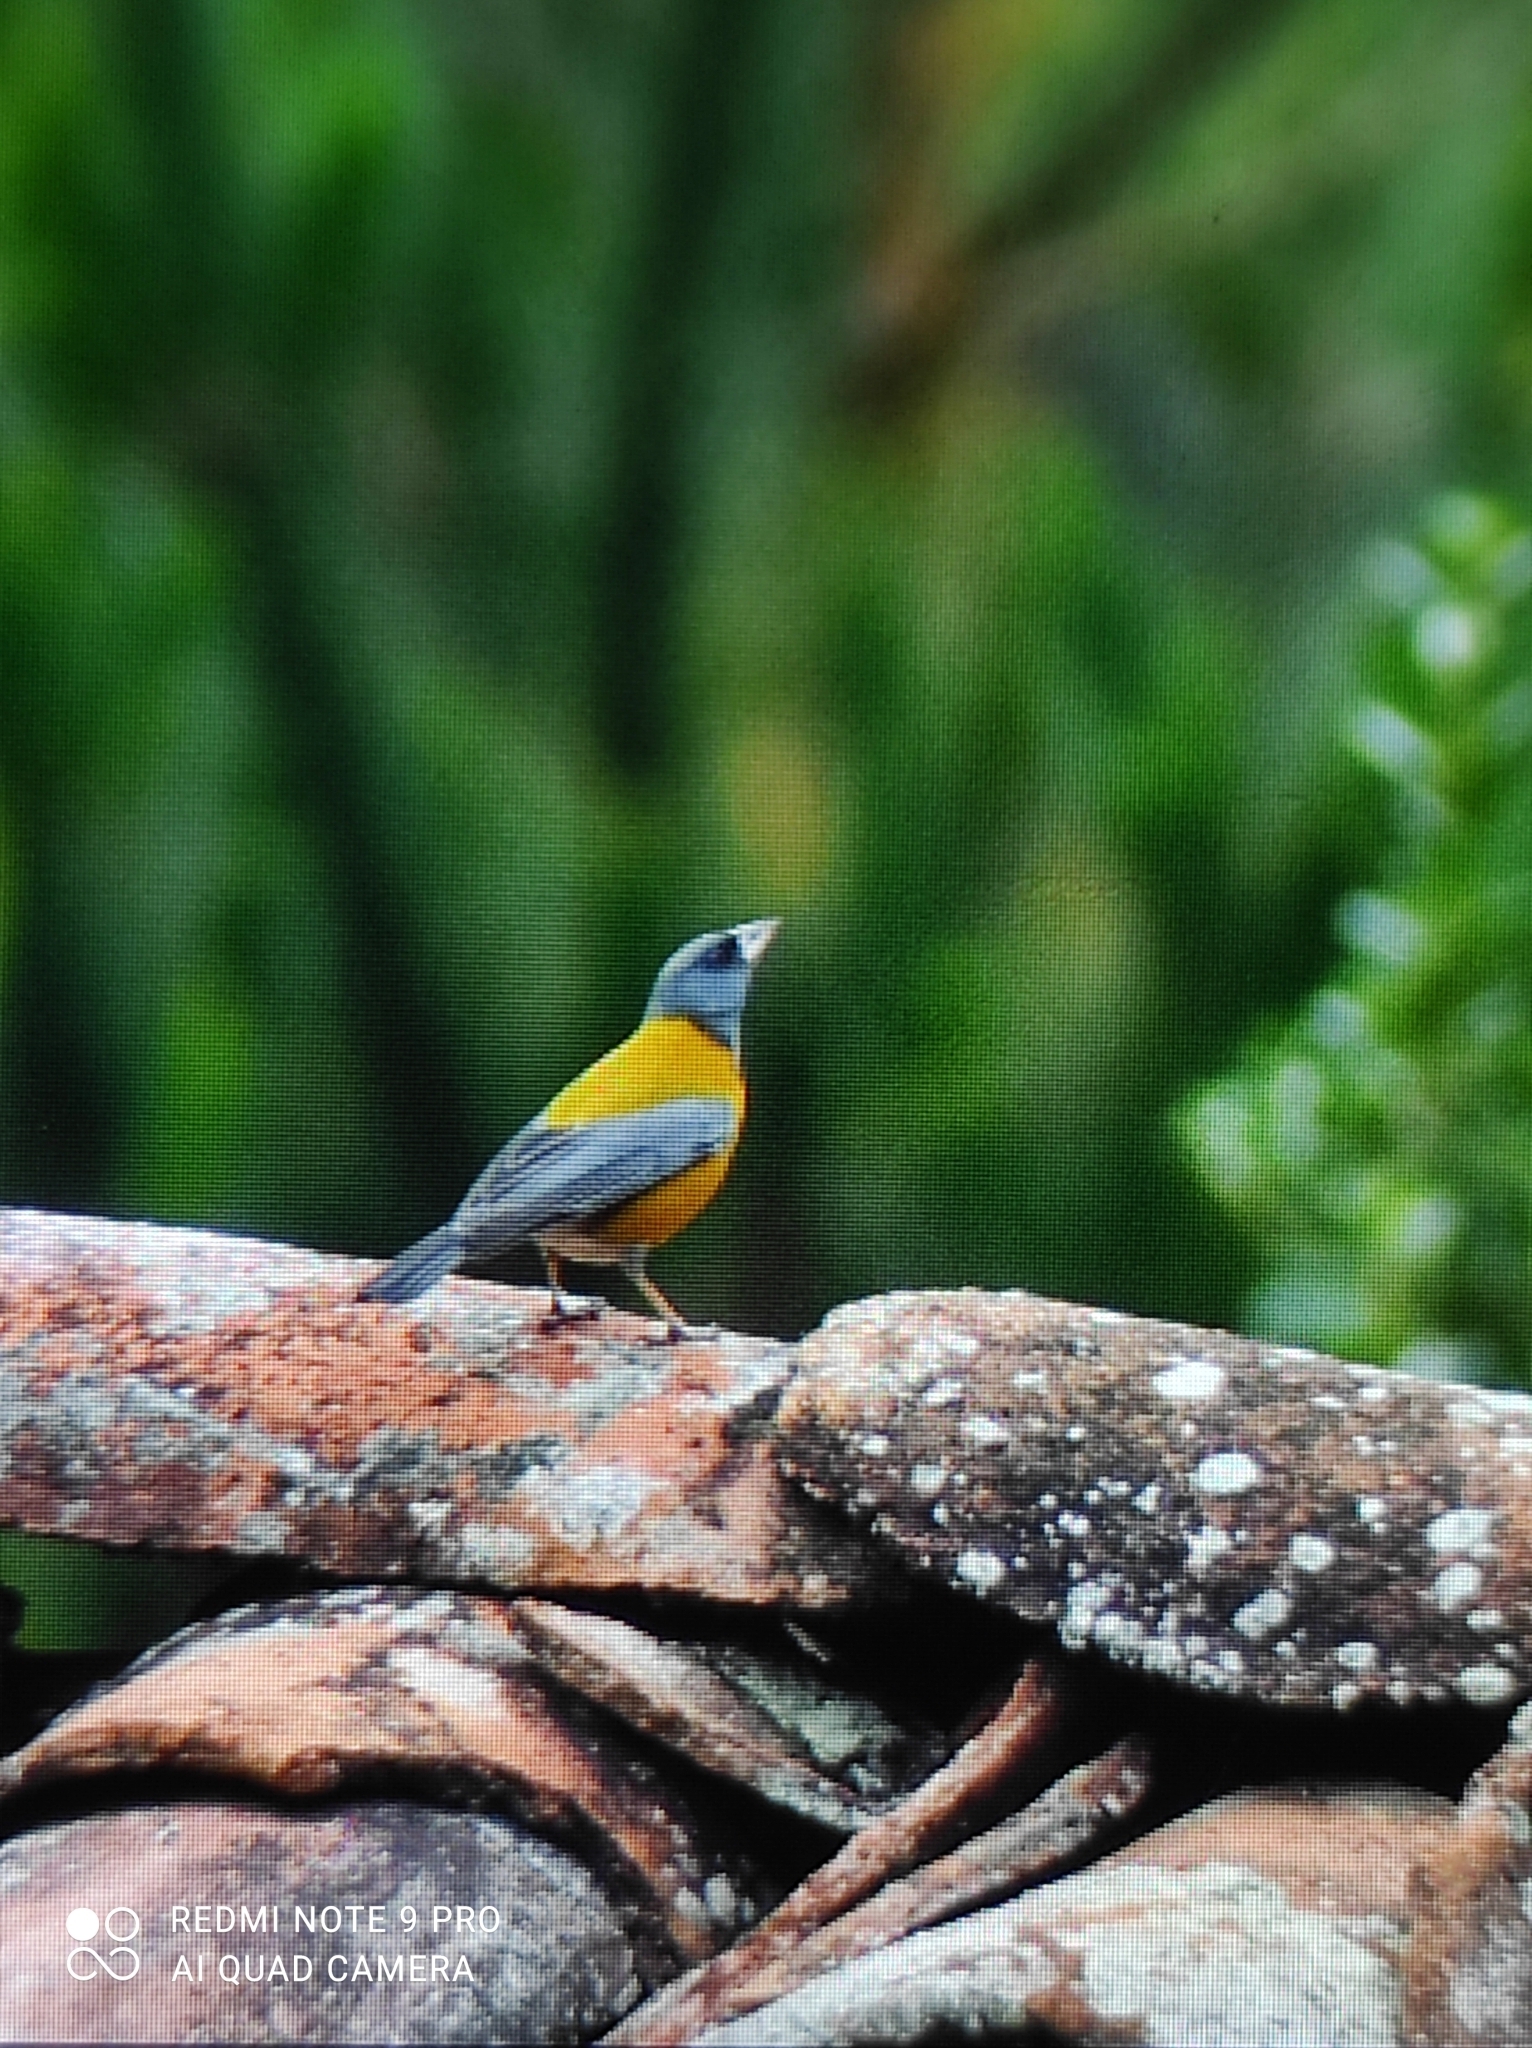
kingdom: Animalia
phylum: Chordata
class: Aves
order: Passeriformes
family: Thraupidae
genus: Phrygilus
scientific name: Phrygilus punensis
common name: Peruvian sierra finch
